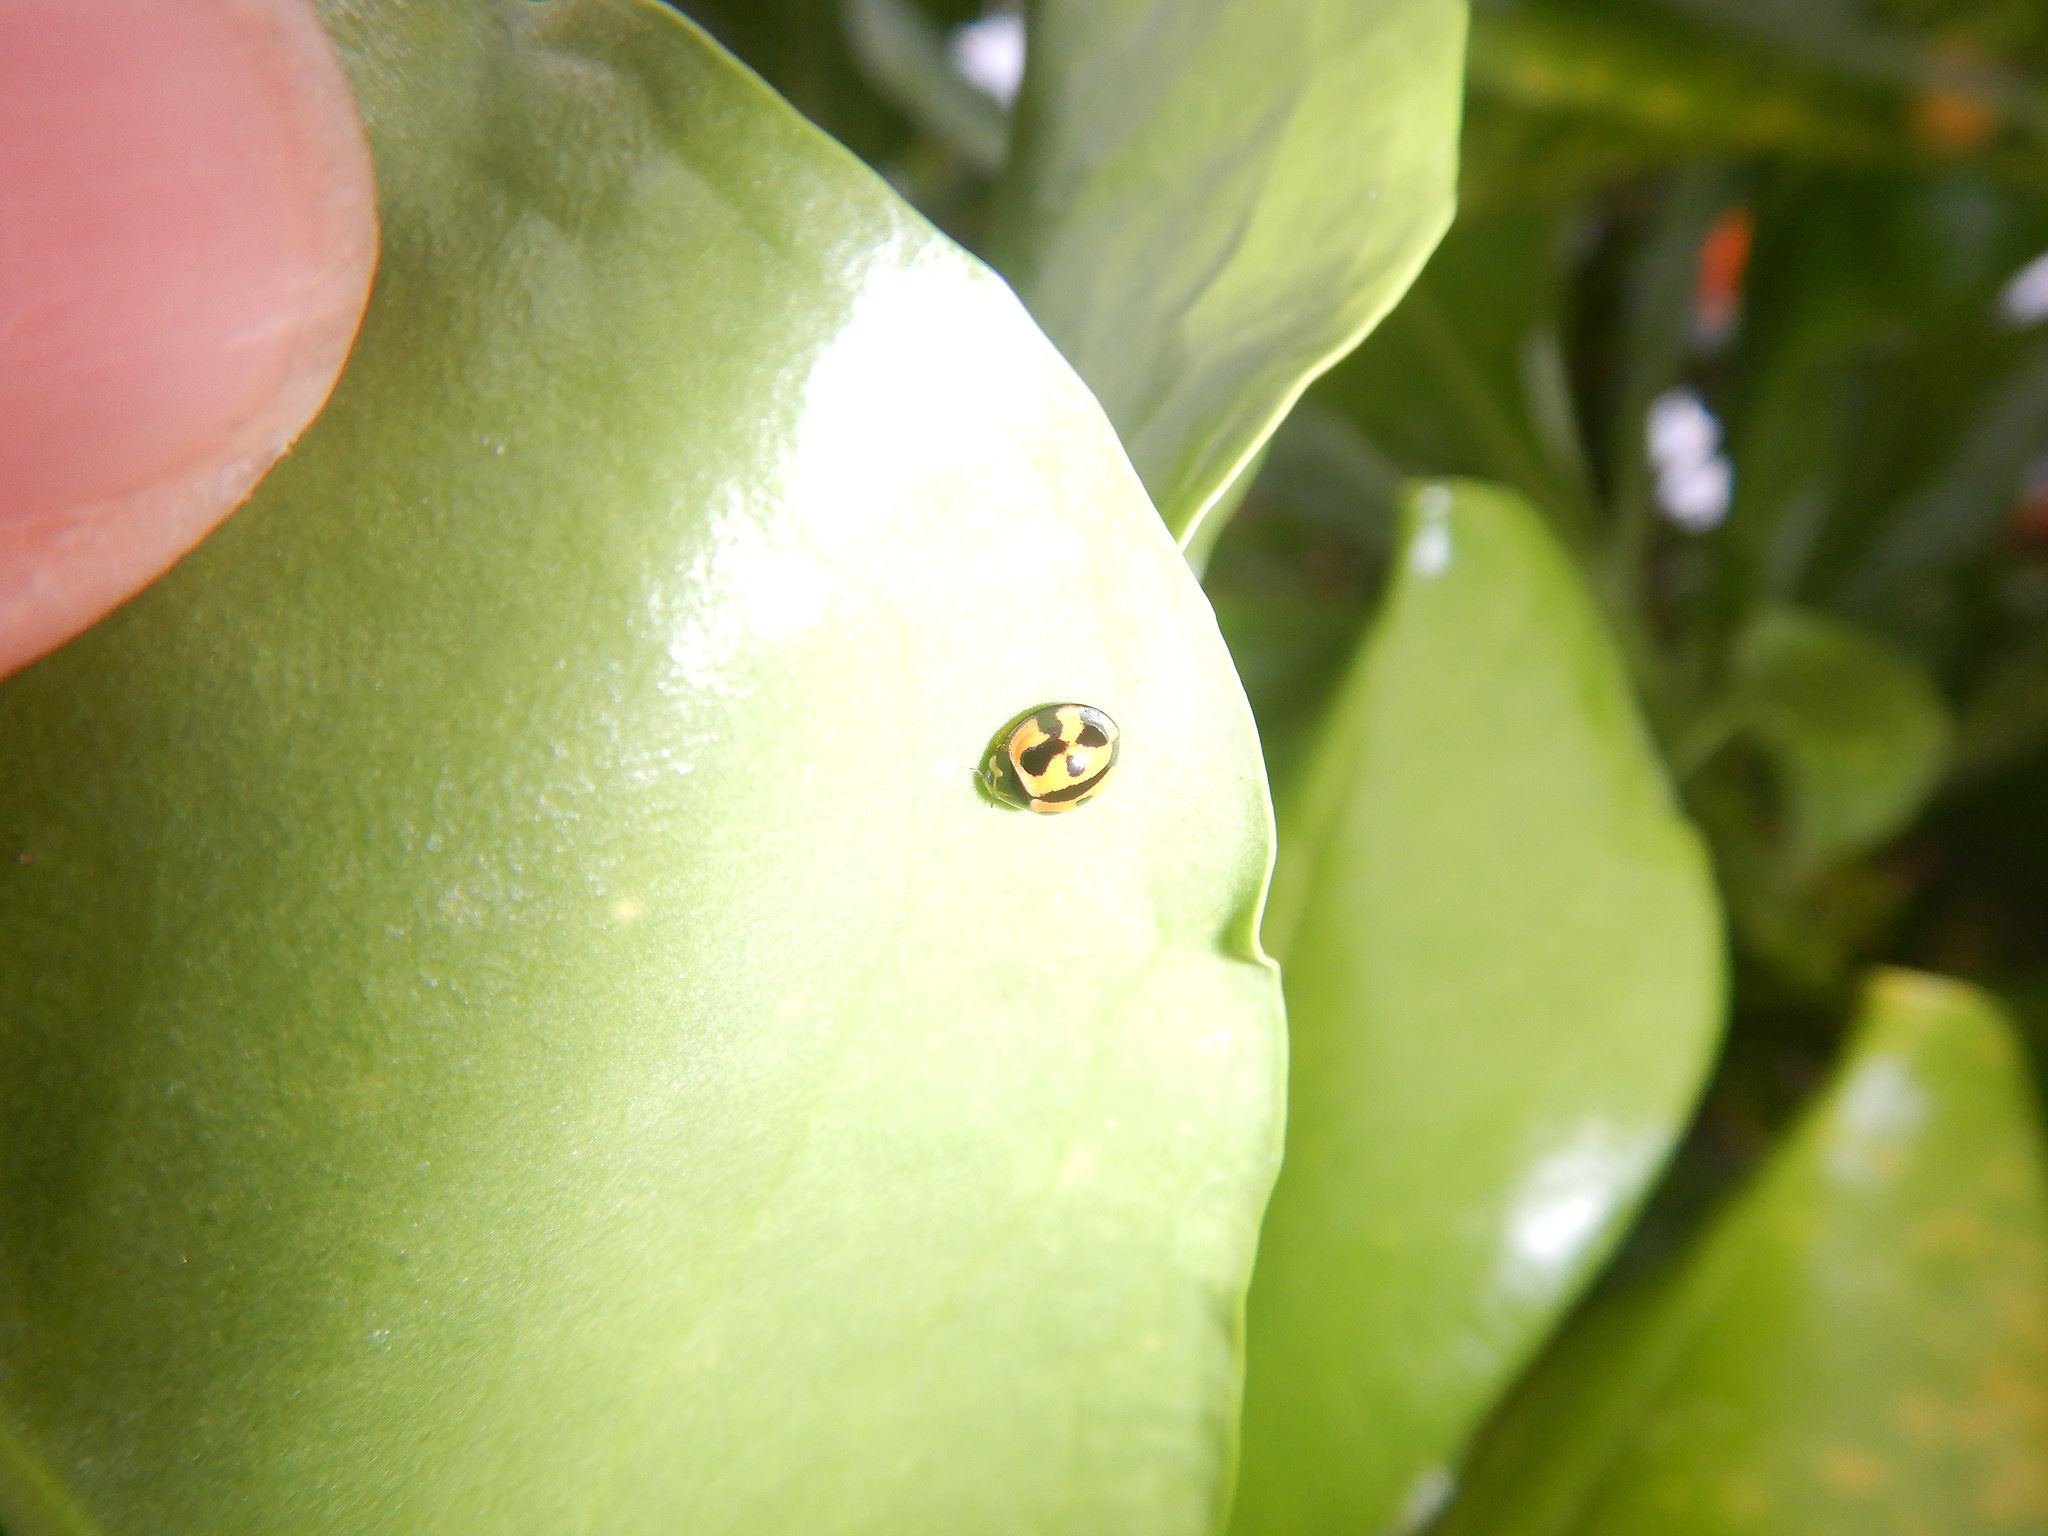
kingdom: Animalia
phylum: Arthropoda
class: Insecta
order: Coleoptera
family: Coccinellidae
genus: Coelophora
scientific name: Coelophora inaequalis
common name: Common australian lady beetle
